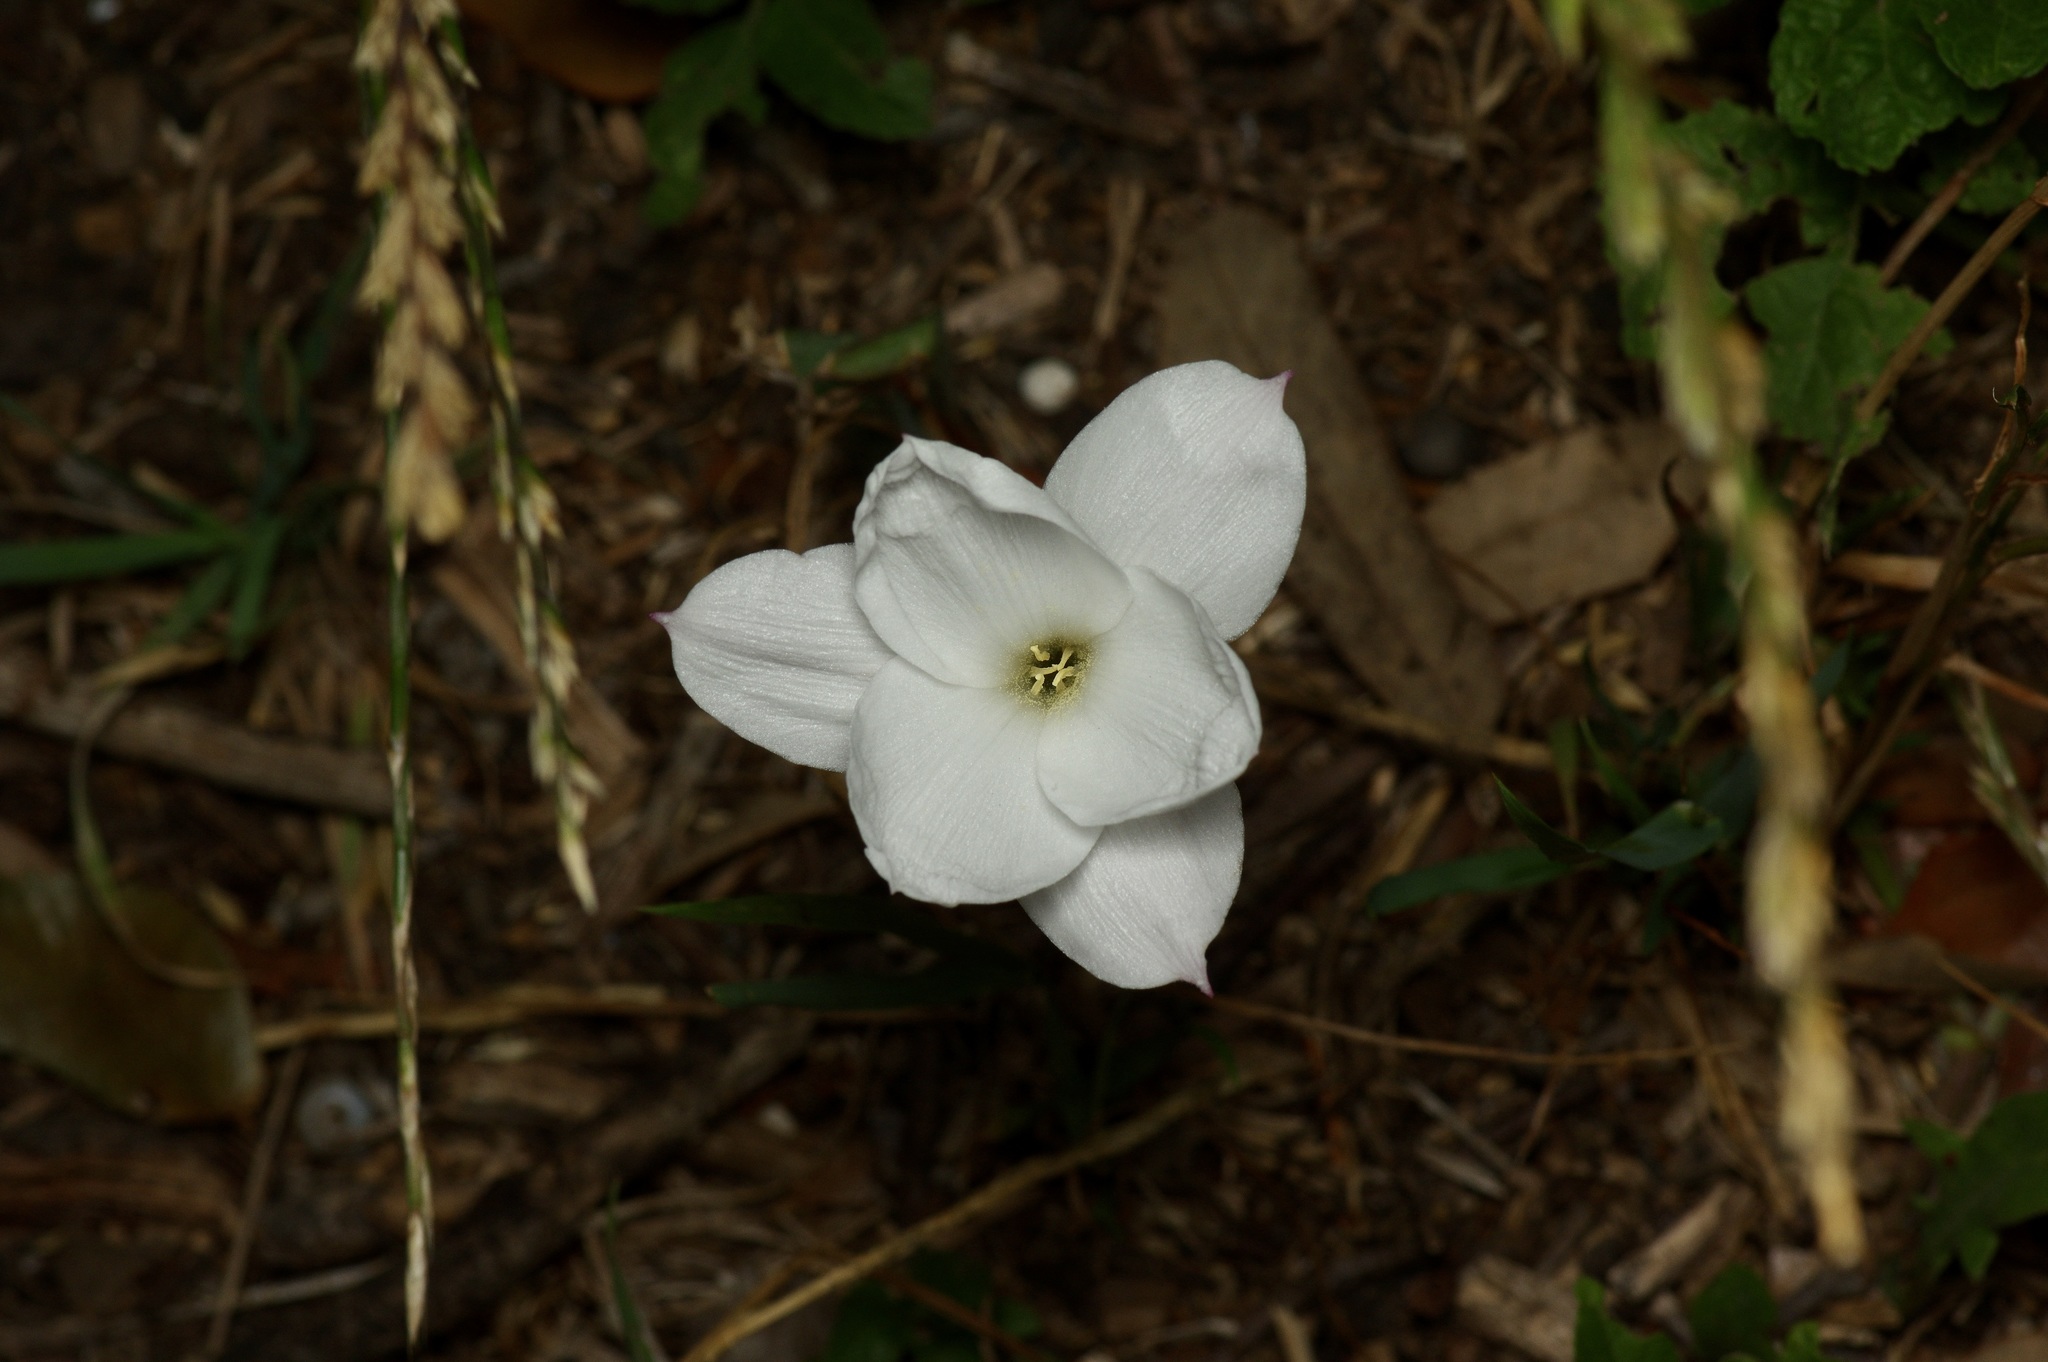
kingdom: Plantae
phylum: Tracheophyta
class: Liliopsida
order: Asparagales
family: Amaryllidaceae
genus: Zephyranthes
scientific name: Zephyranthes drummondii
